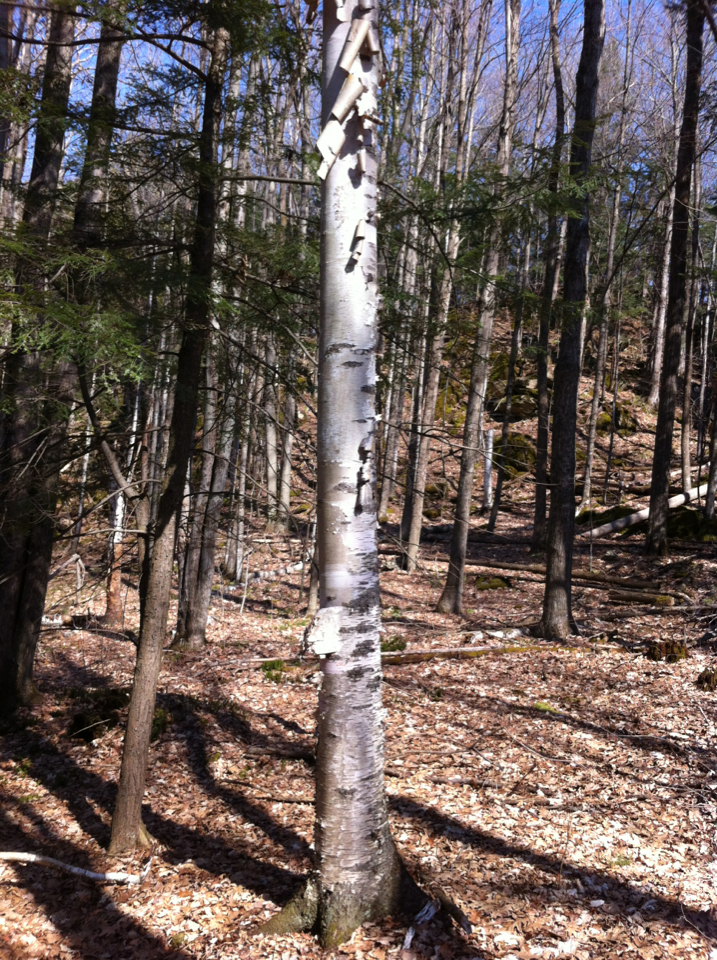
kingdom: Plantae
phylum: Tracheophyta
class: Magnoliopsida
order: Fagales
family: Betulaceae
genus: Betula
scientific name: Betula papyrifera
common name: Paper birch
